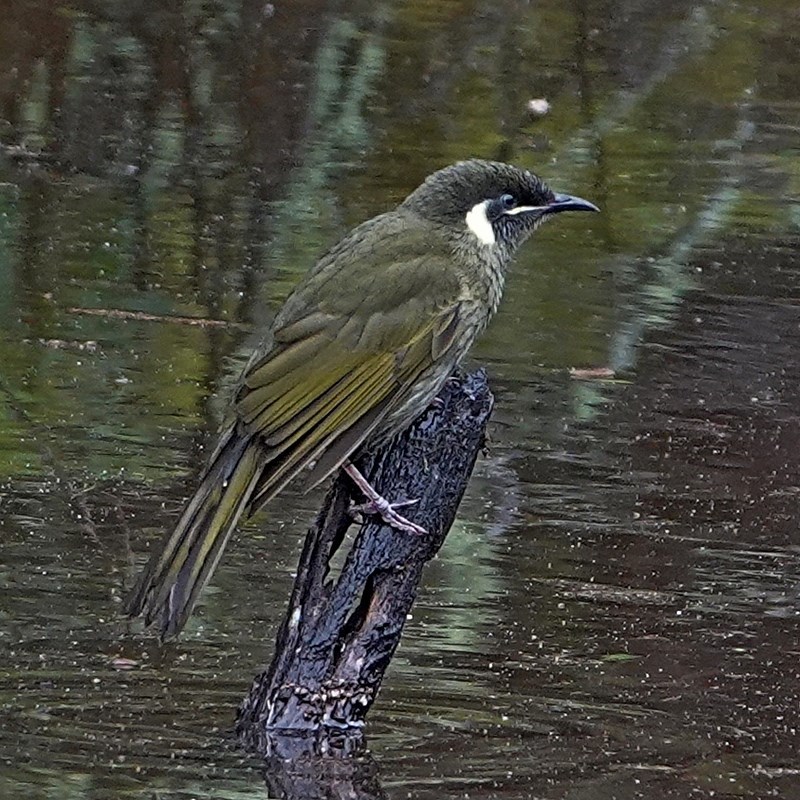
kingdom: Animalia
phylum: Chordata
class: Aves
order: Passeriformes
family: Meliphagidae
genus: Meliphaga
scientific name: Meliphaga lewinii
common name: Lewin's honeyeater
